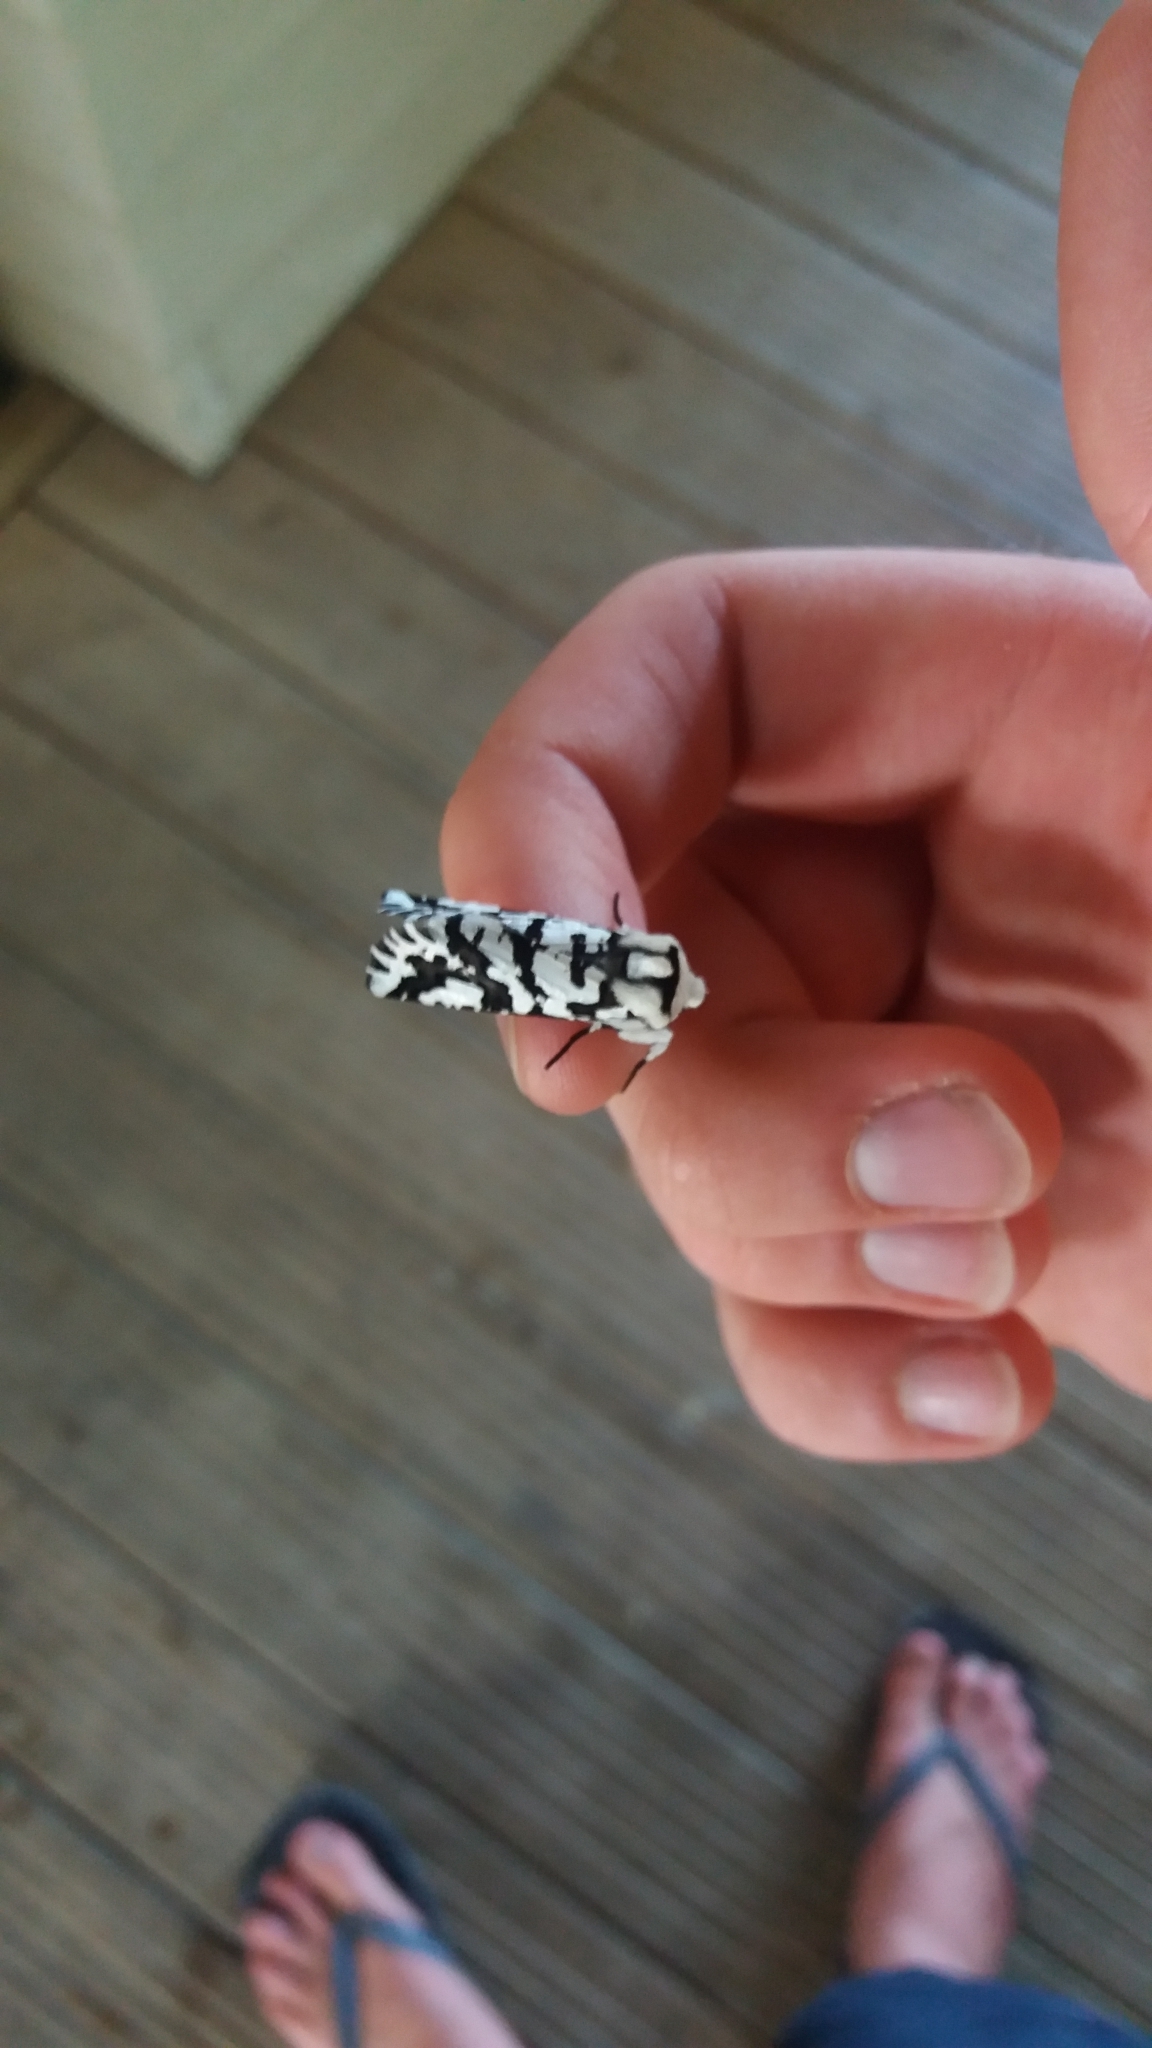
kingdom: Animalia
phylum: Arthropoda
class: Insecta
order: Lepidoptera
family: Geometridae
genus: Declana
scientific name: Declana
